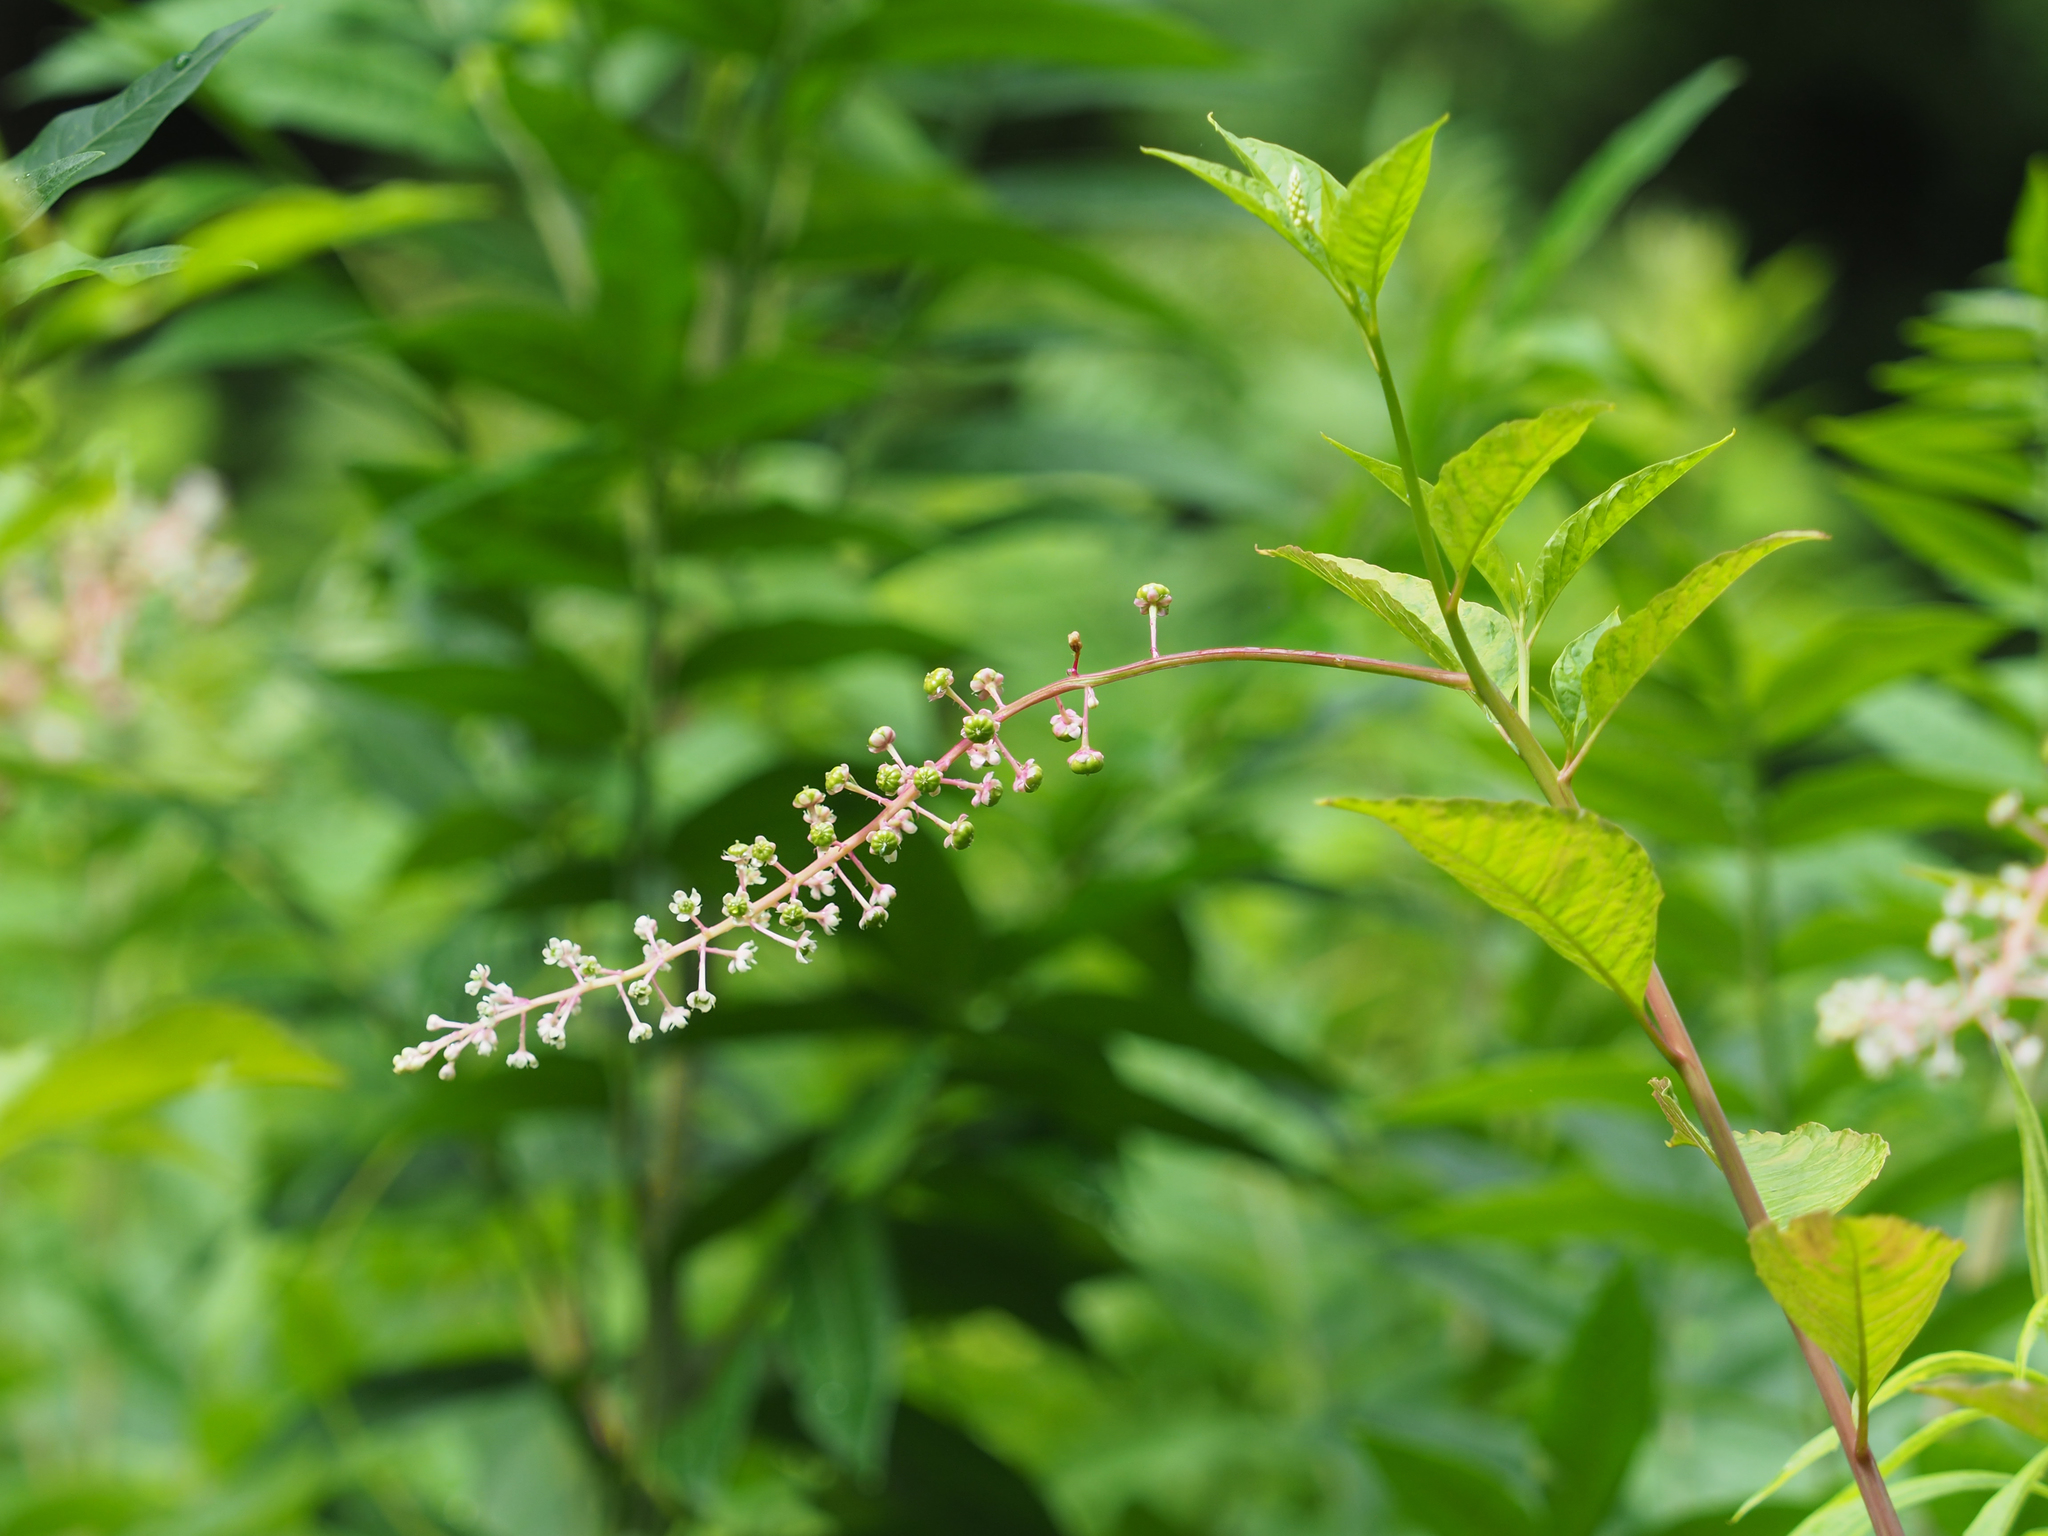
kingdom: Plantae
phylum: Tracheophyta
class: Magnoliopsida
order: Caryophyllales
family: Phytolaccaceae
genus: Phytolacca
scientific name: Phytolacca americana
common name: American pokeweed
